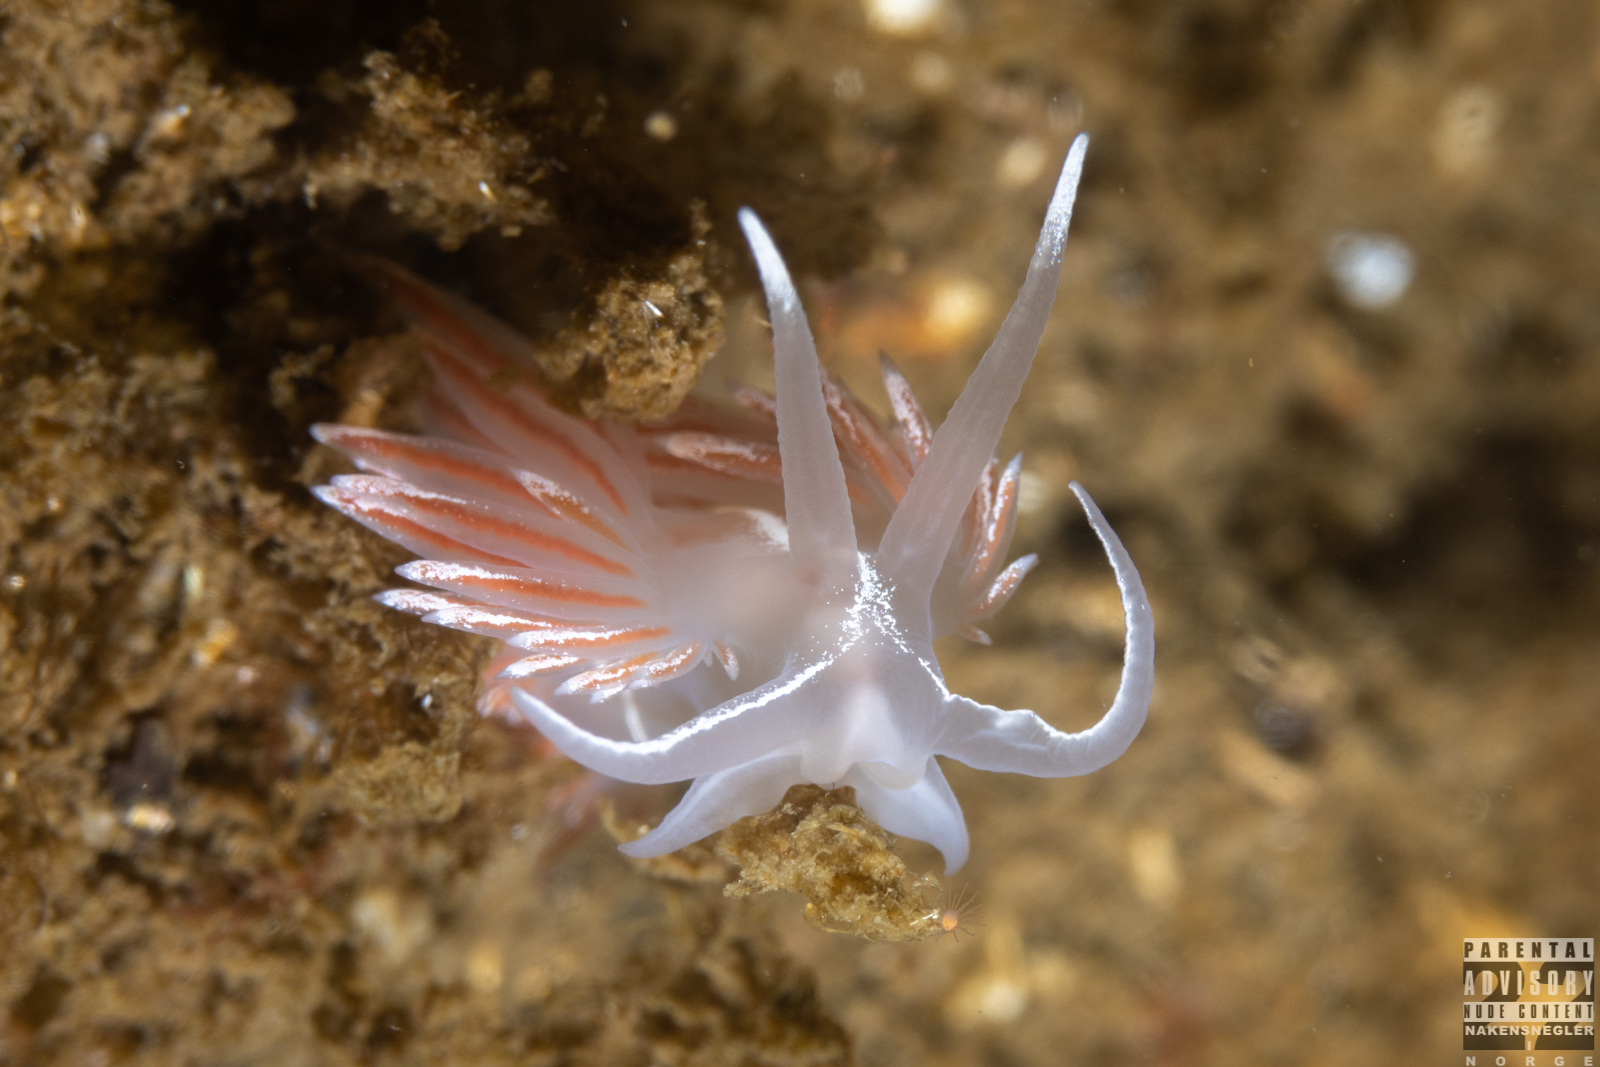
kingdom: Animalia
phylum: Mollusca
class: Gastropoda
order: Nudibranchia
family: Coryphellidae
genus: Coryphella
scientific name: Coryphella lineata
